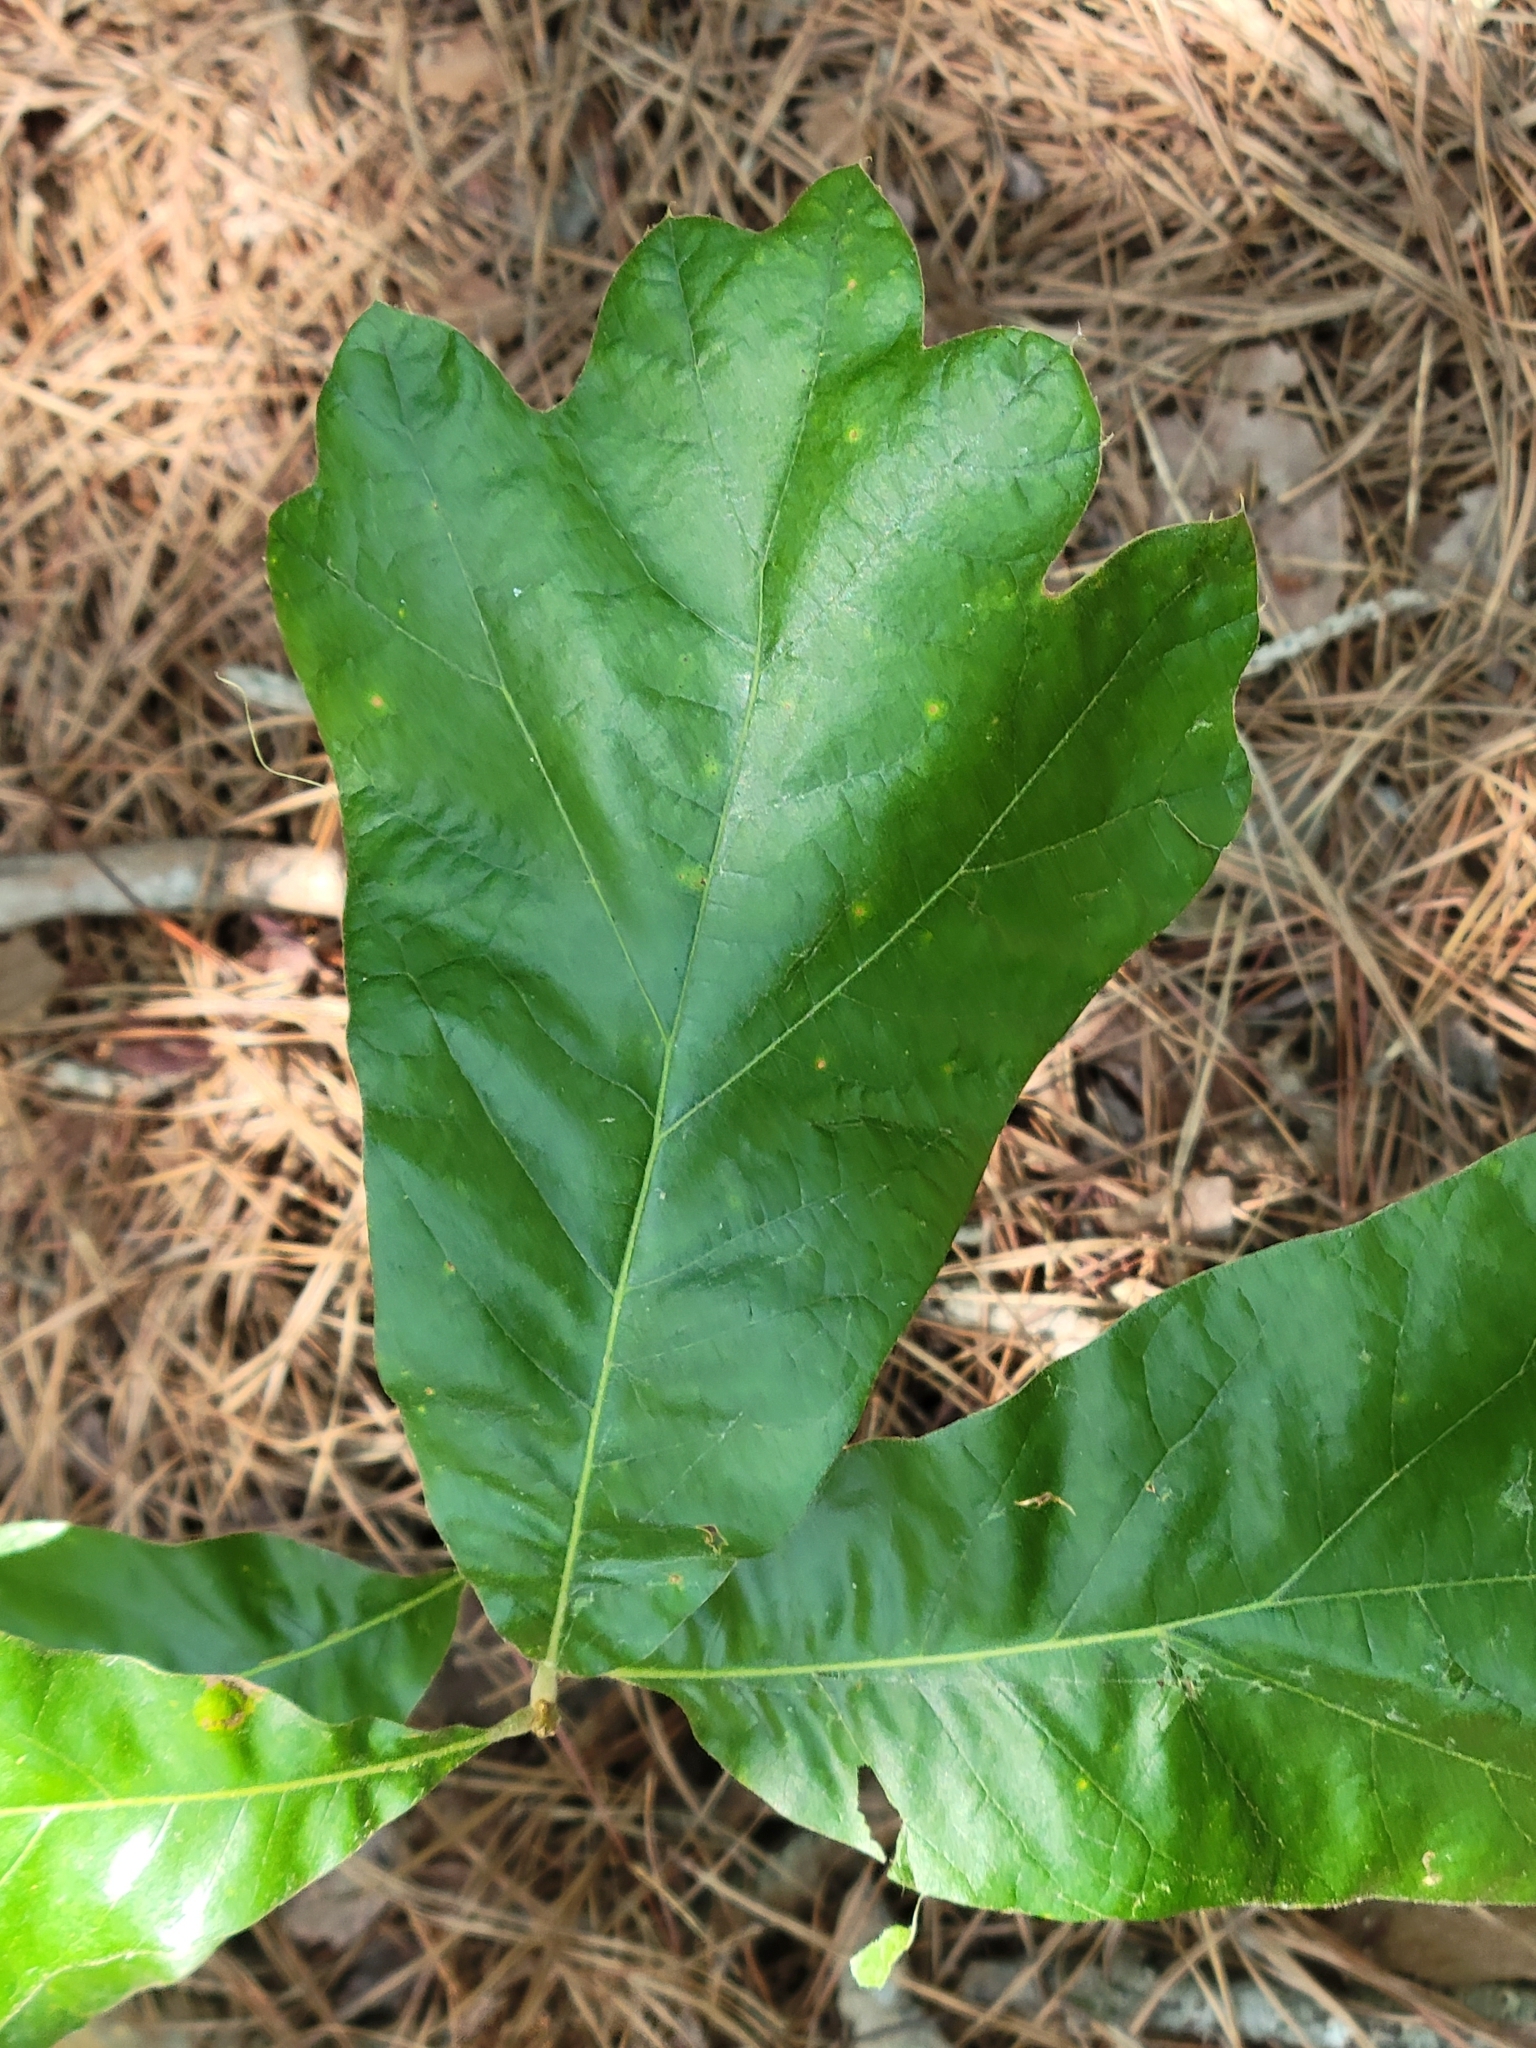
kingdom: Plantae
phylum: Tracheophyta
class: Magnoliopsida
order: Fagales
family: Fagaceae
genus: Quercus
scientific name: Quercus falcata
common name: Southern red oak
